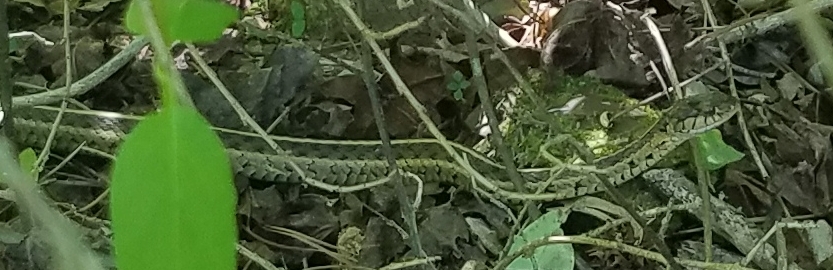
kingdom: Animalia
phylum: Chordata
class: Squamata
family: Colubridae
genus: Thamnophis
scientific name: Thamnophis sirtalis
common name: Common garter snake
